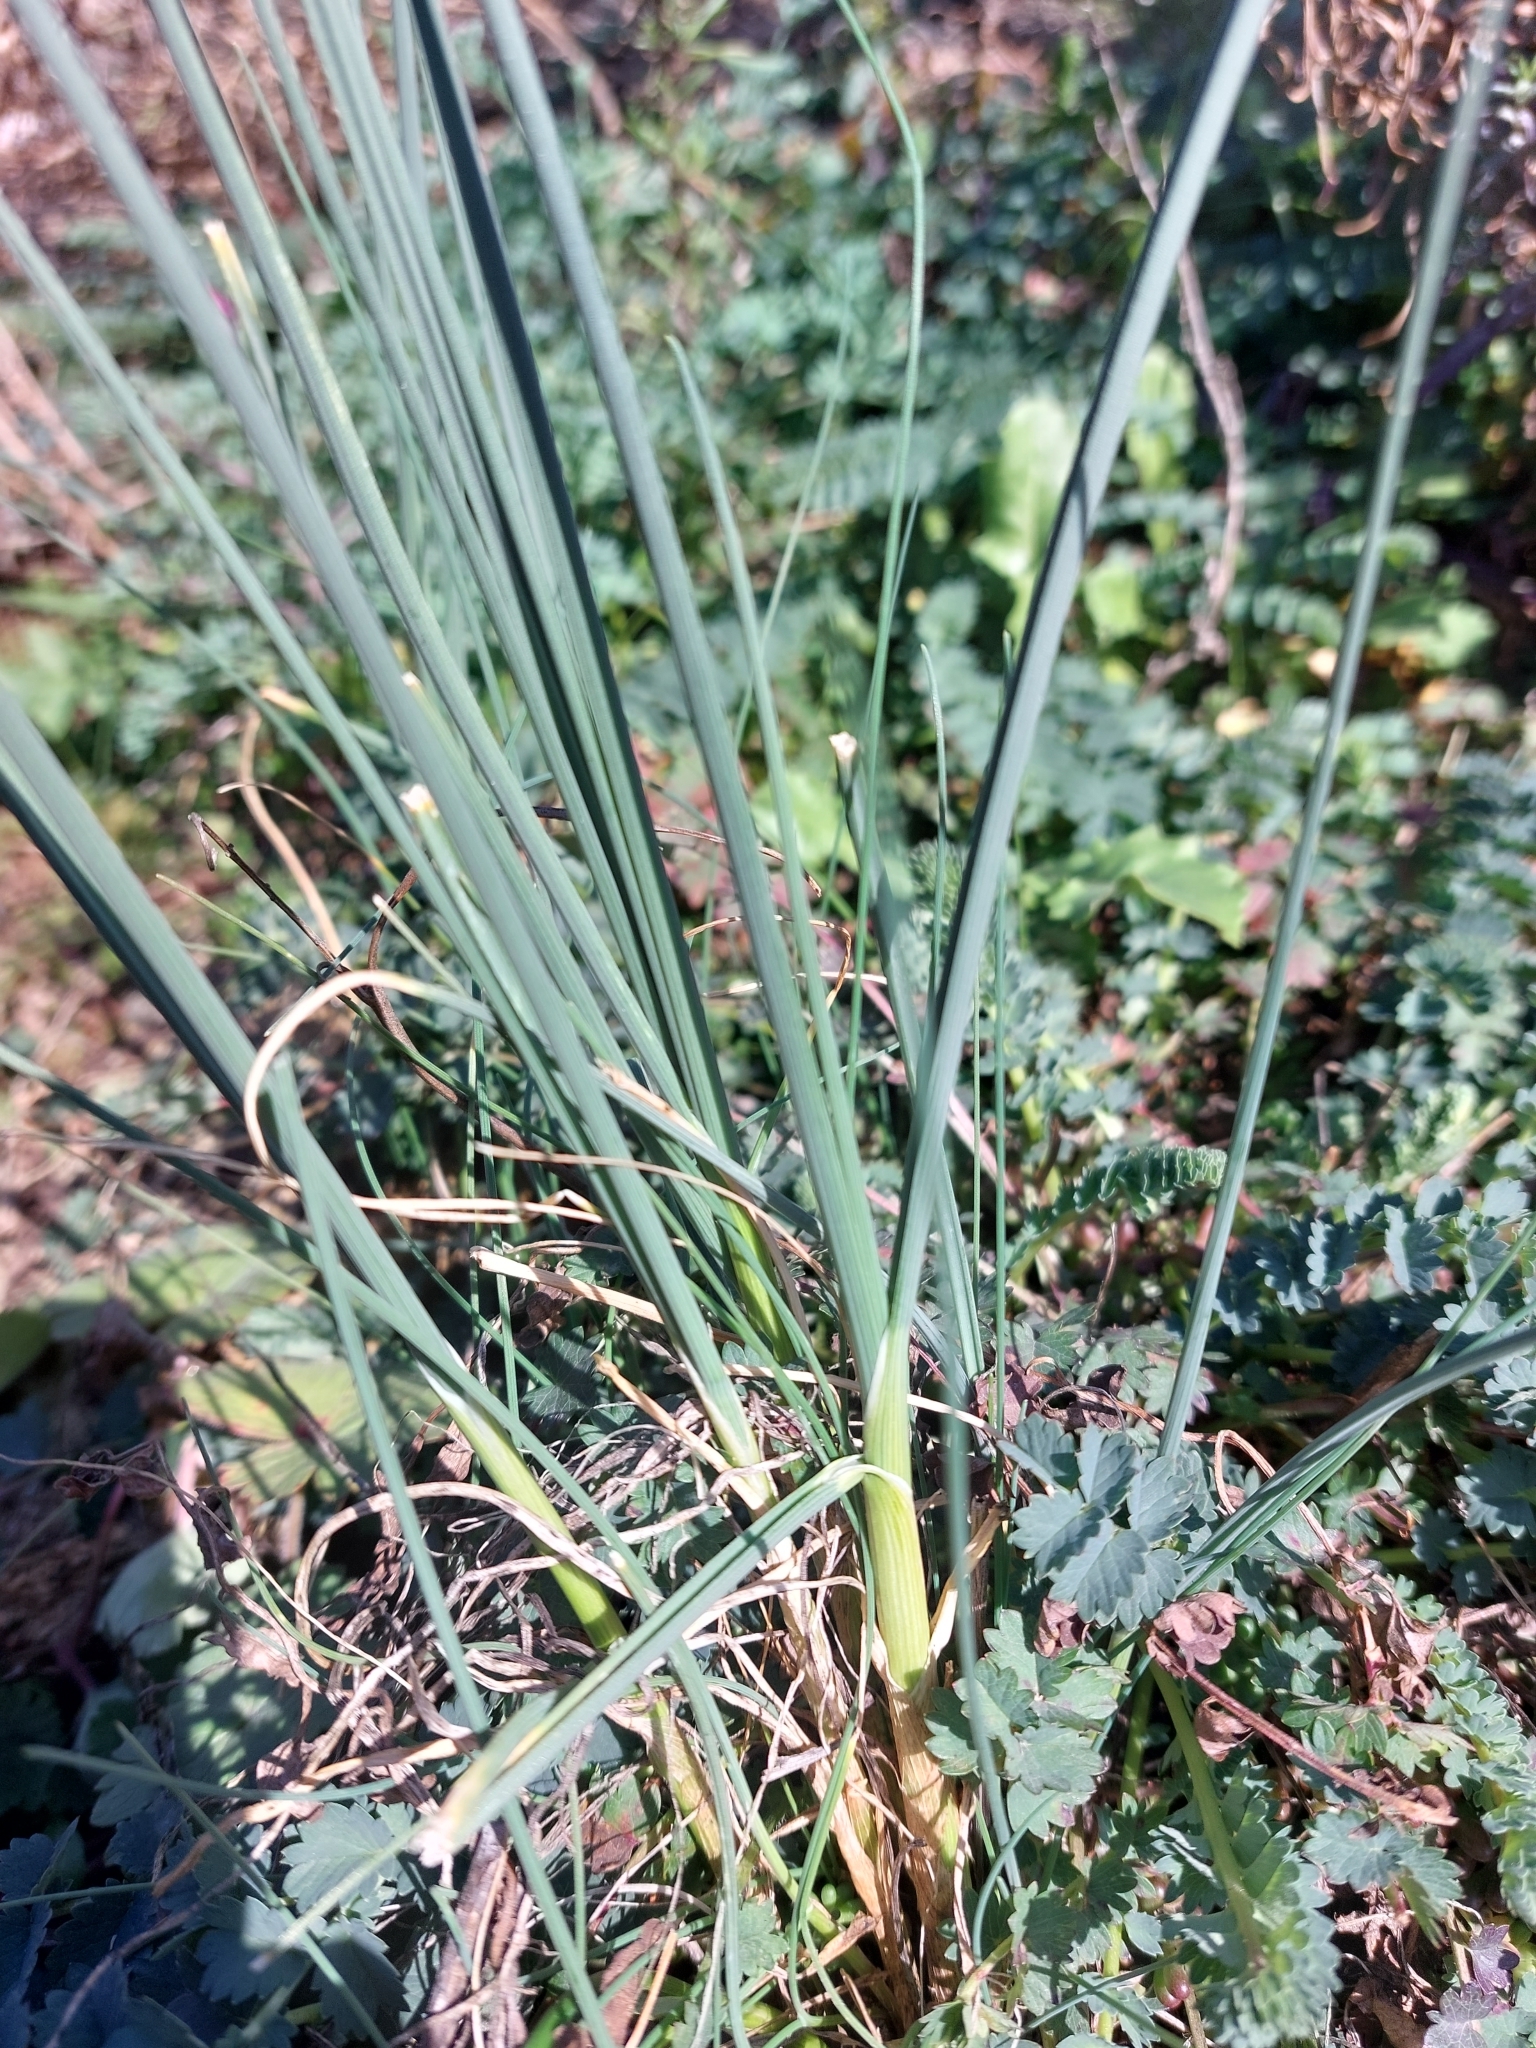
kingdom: Plantae
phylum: Tracheophyta
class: Liliopsida
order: Asparagales
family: Amaryllidaceae
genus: Allium
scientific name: Allium oleraceum
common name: Field garlic
